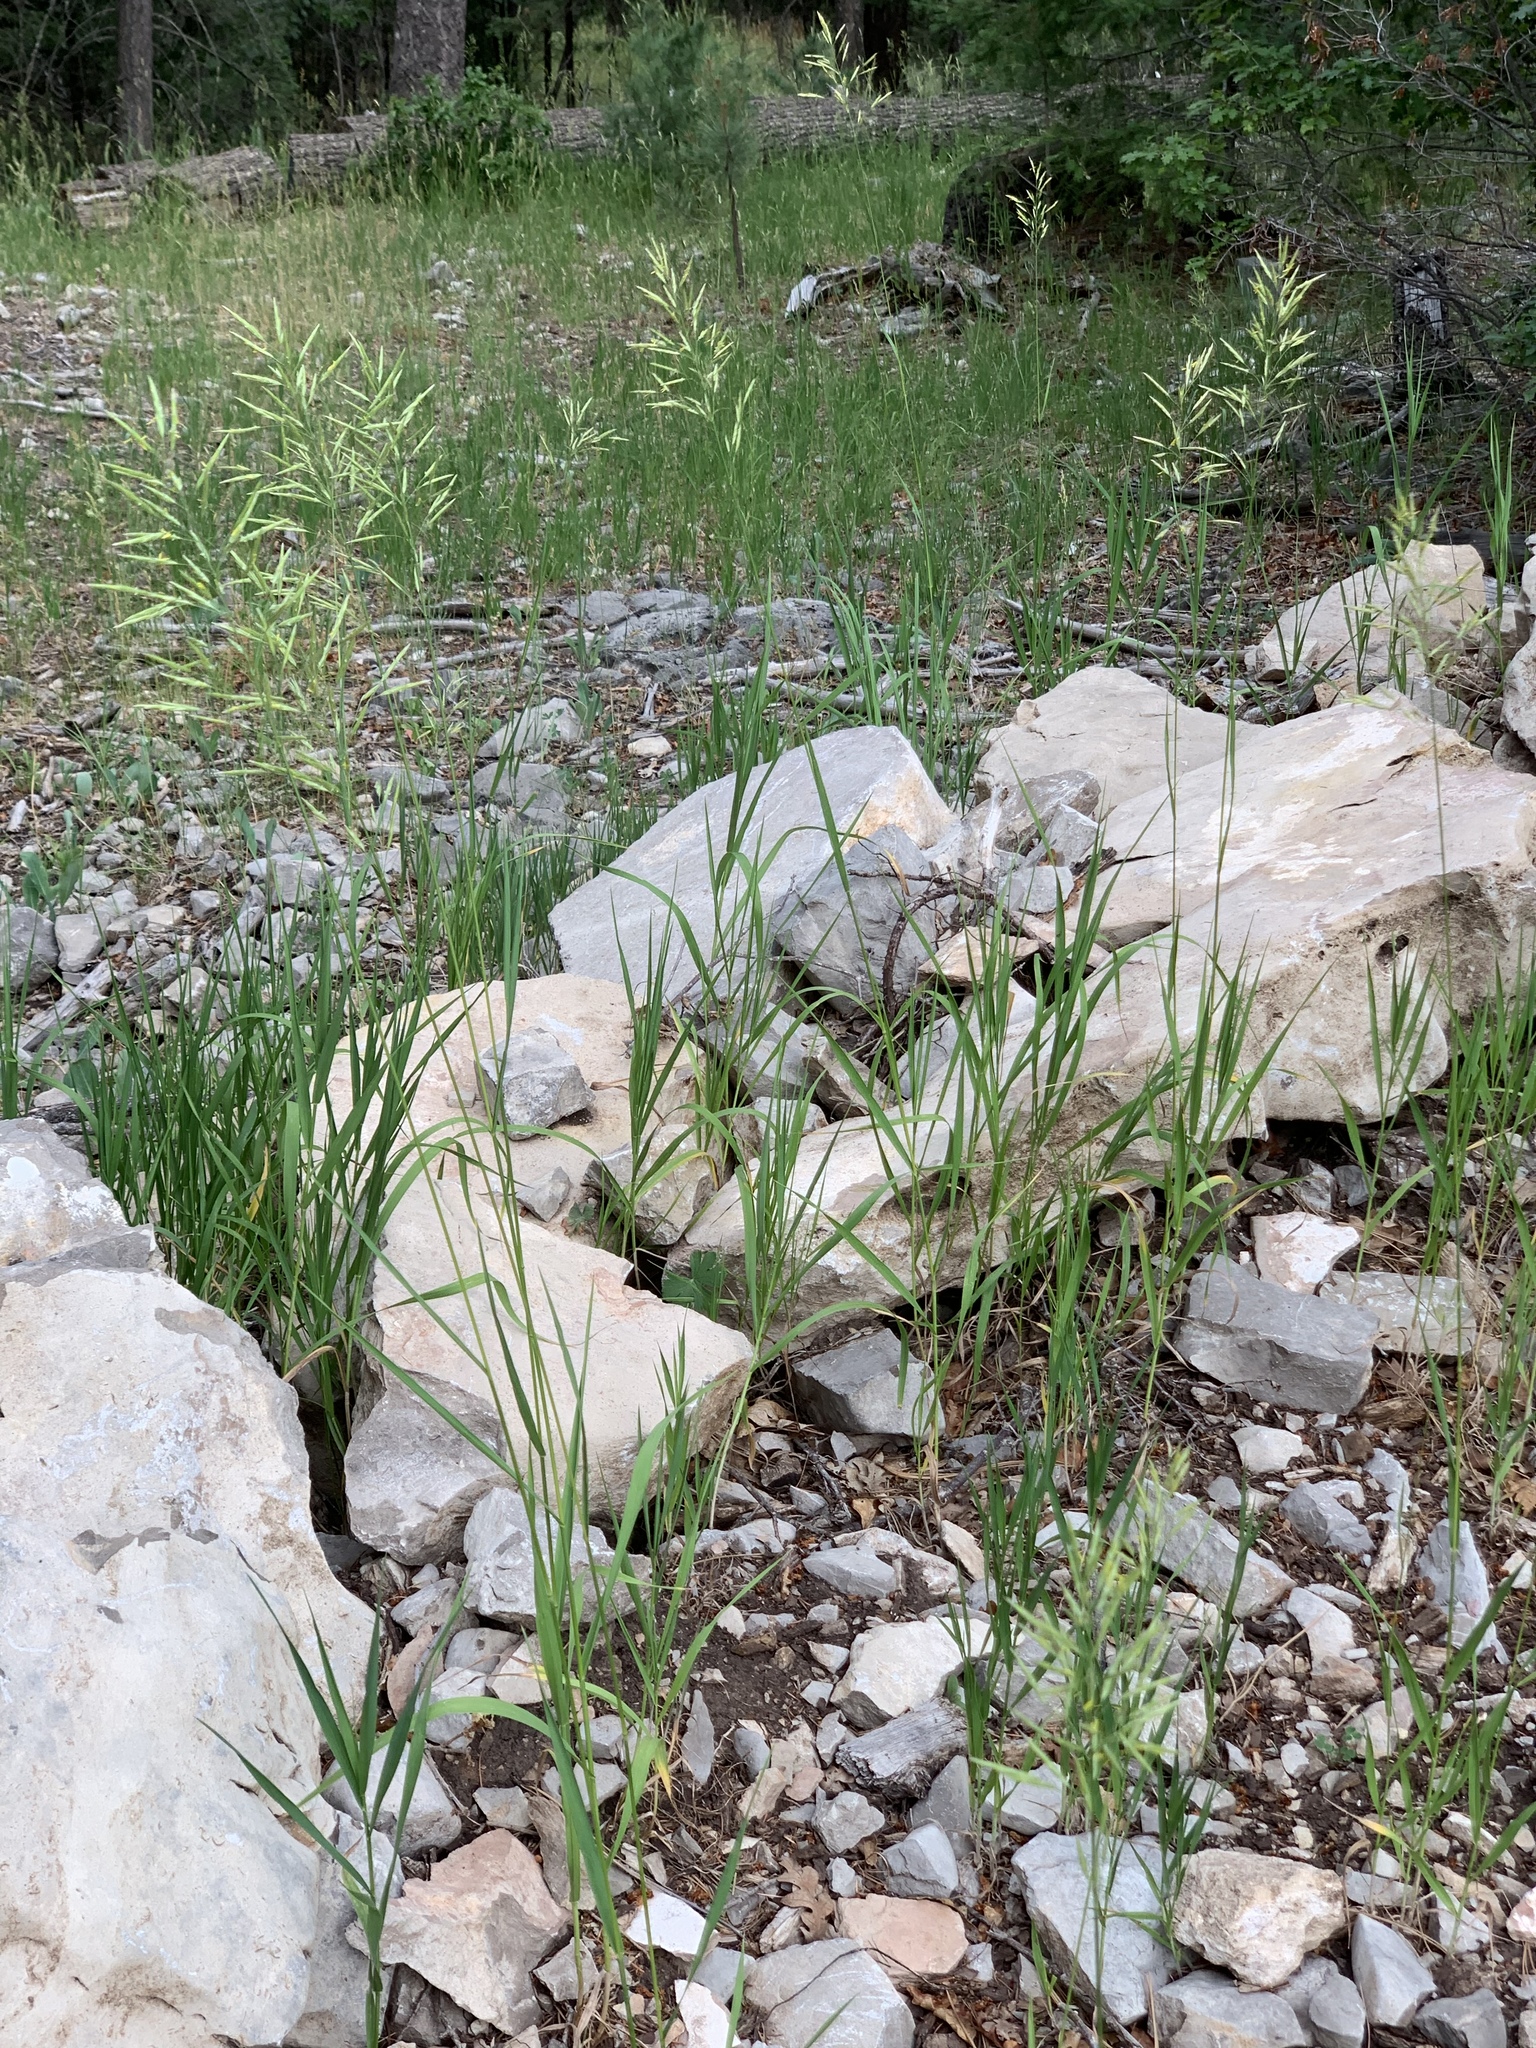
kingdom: Plantae
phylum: Tracheophyta
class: Liliopsida
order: Poales
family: Poaceae
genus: Bromus
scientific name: Bromus inermis
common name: Smooth brome
